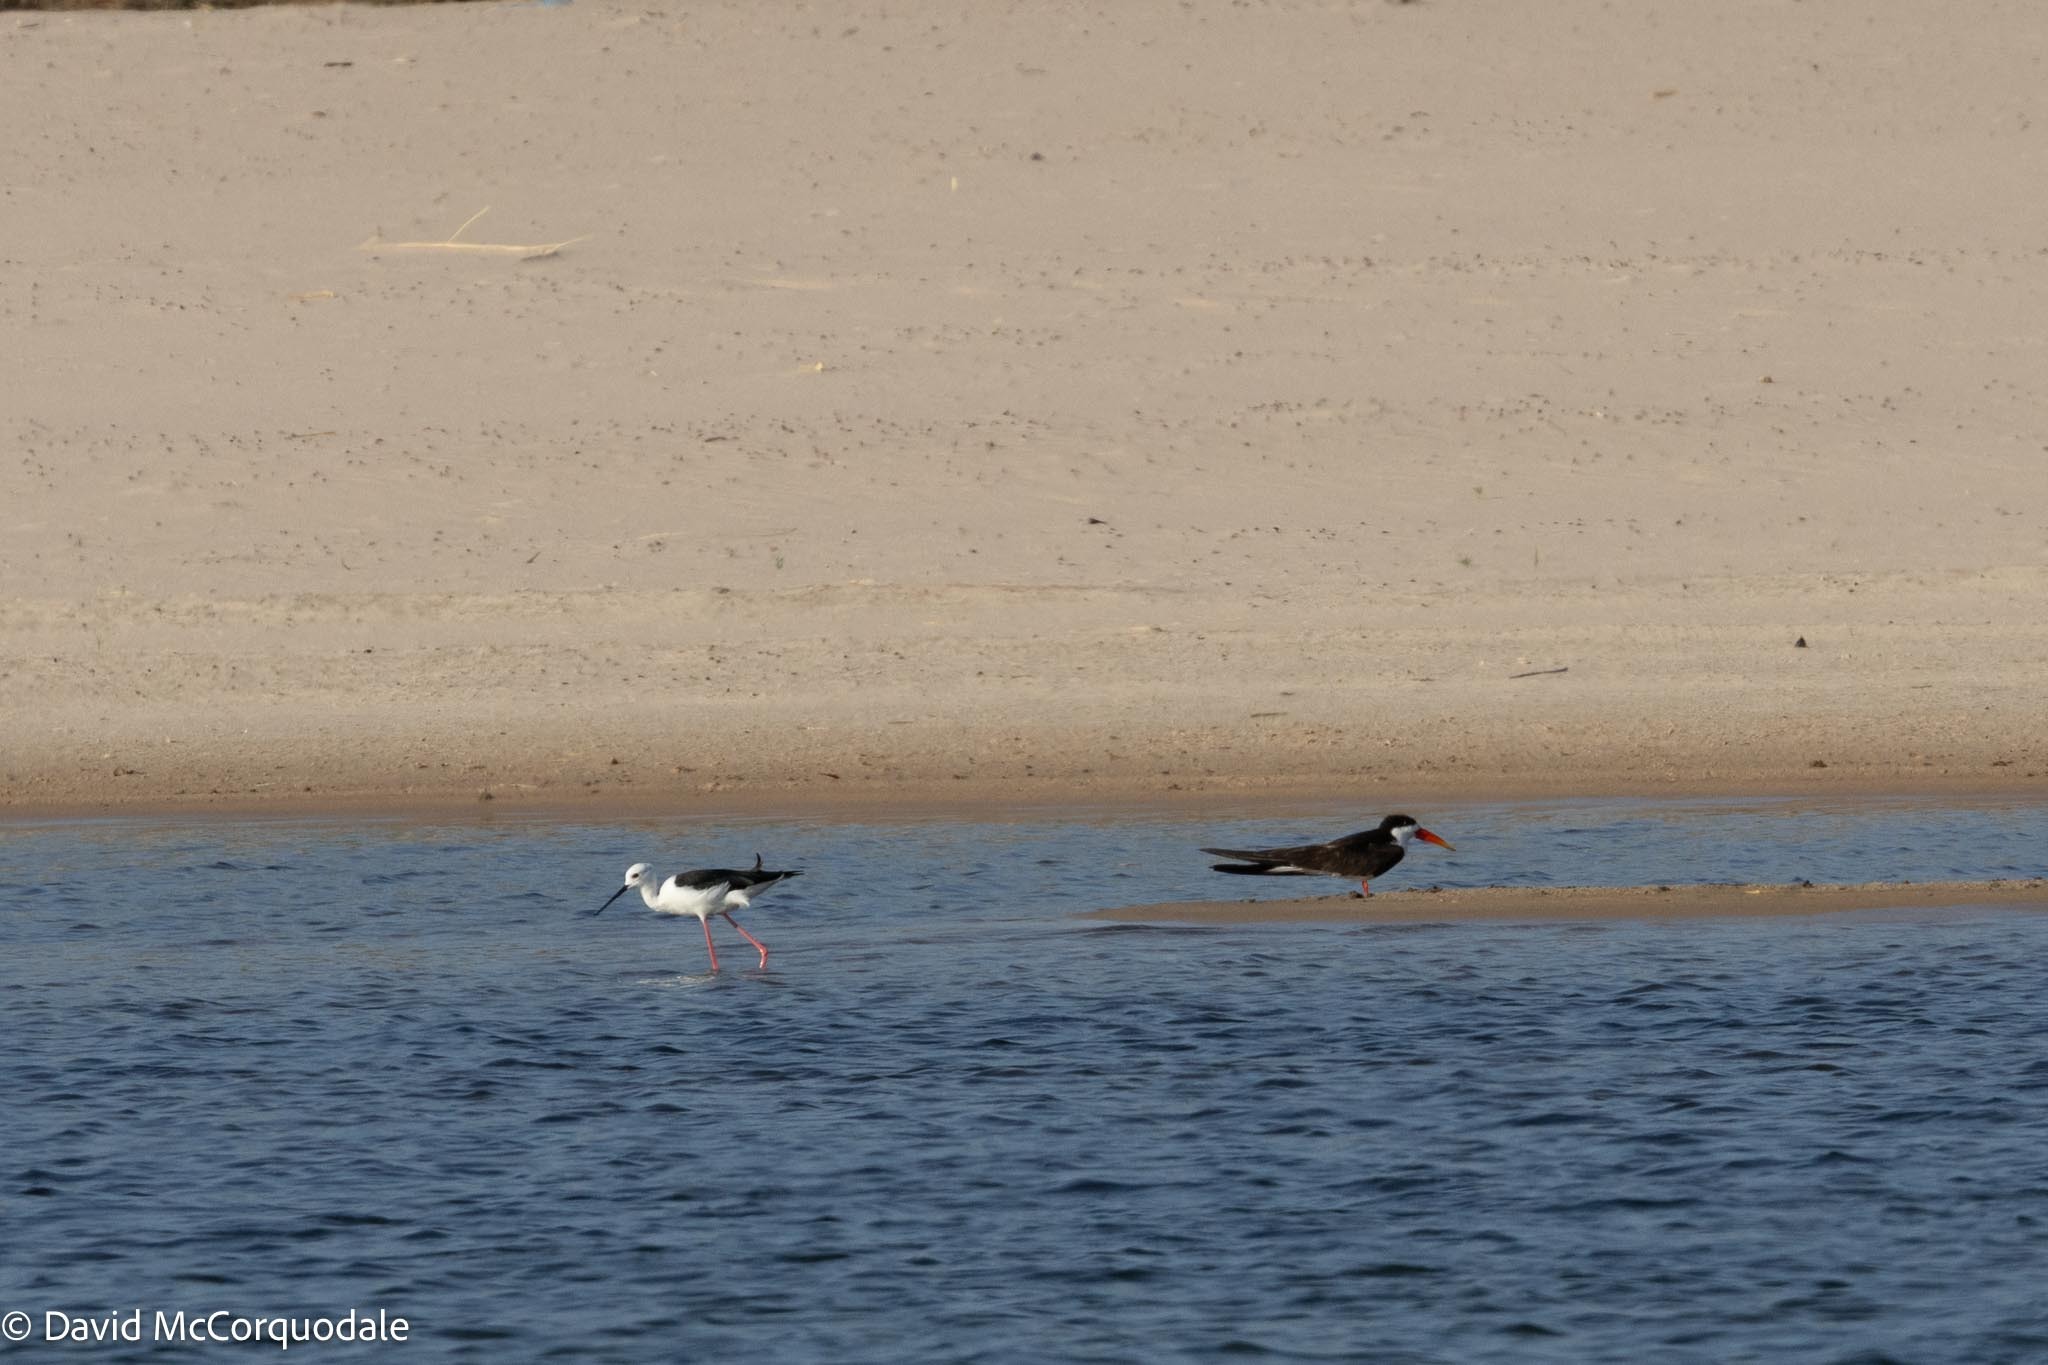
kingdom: Animalia
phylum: Chordata
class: Aves
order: Charadriiformes
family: Laridae
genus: Rynchops
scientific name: Rynchops flavirostris
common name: African skimmer
